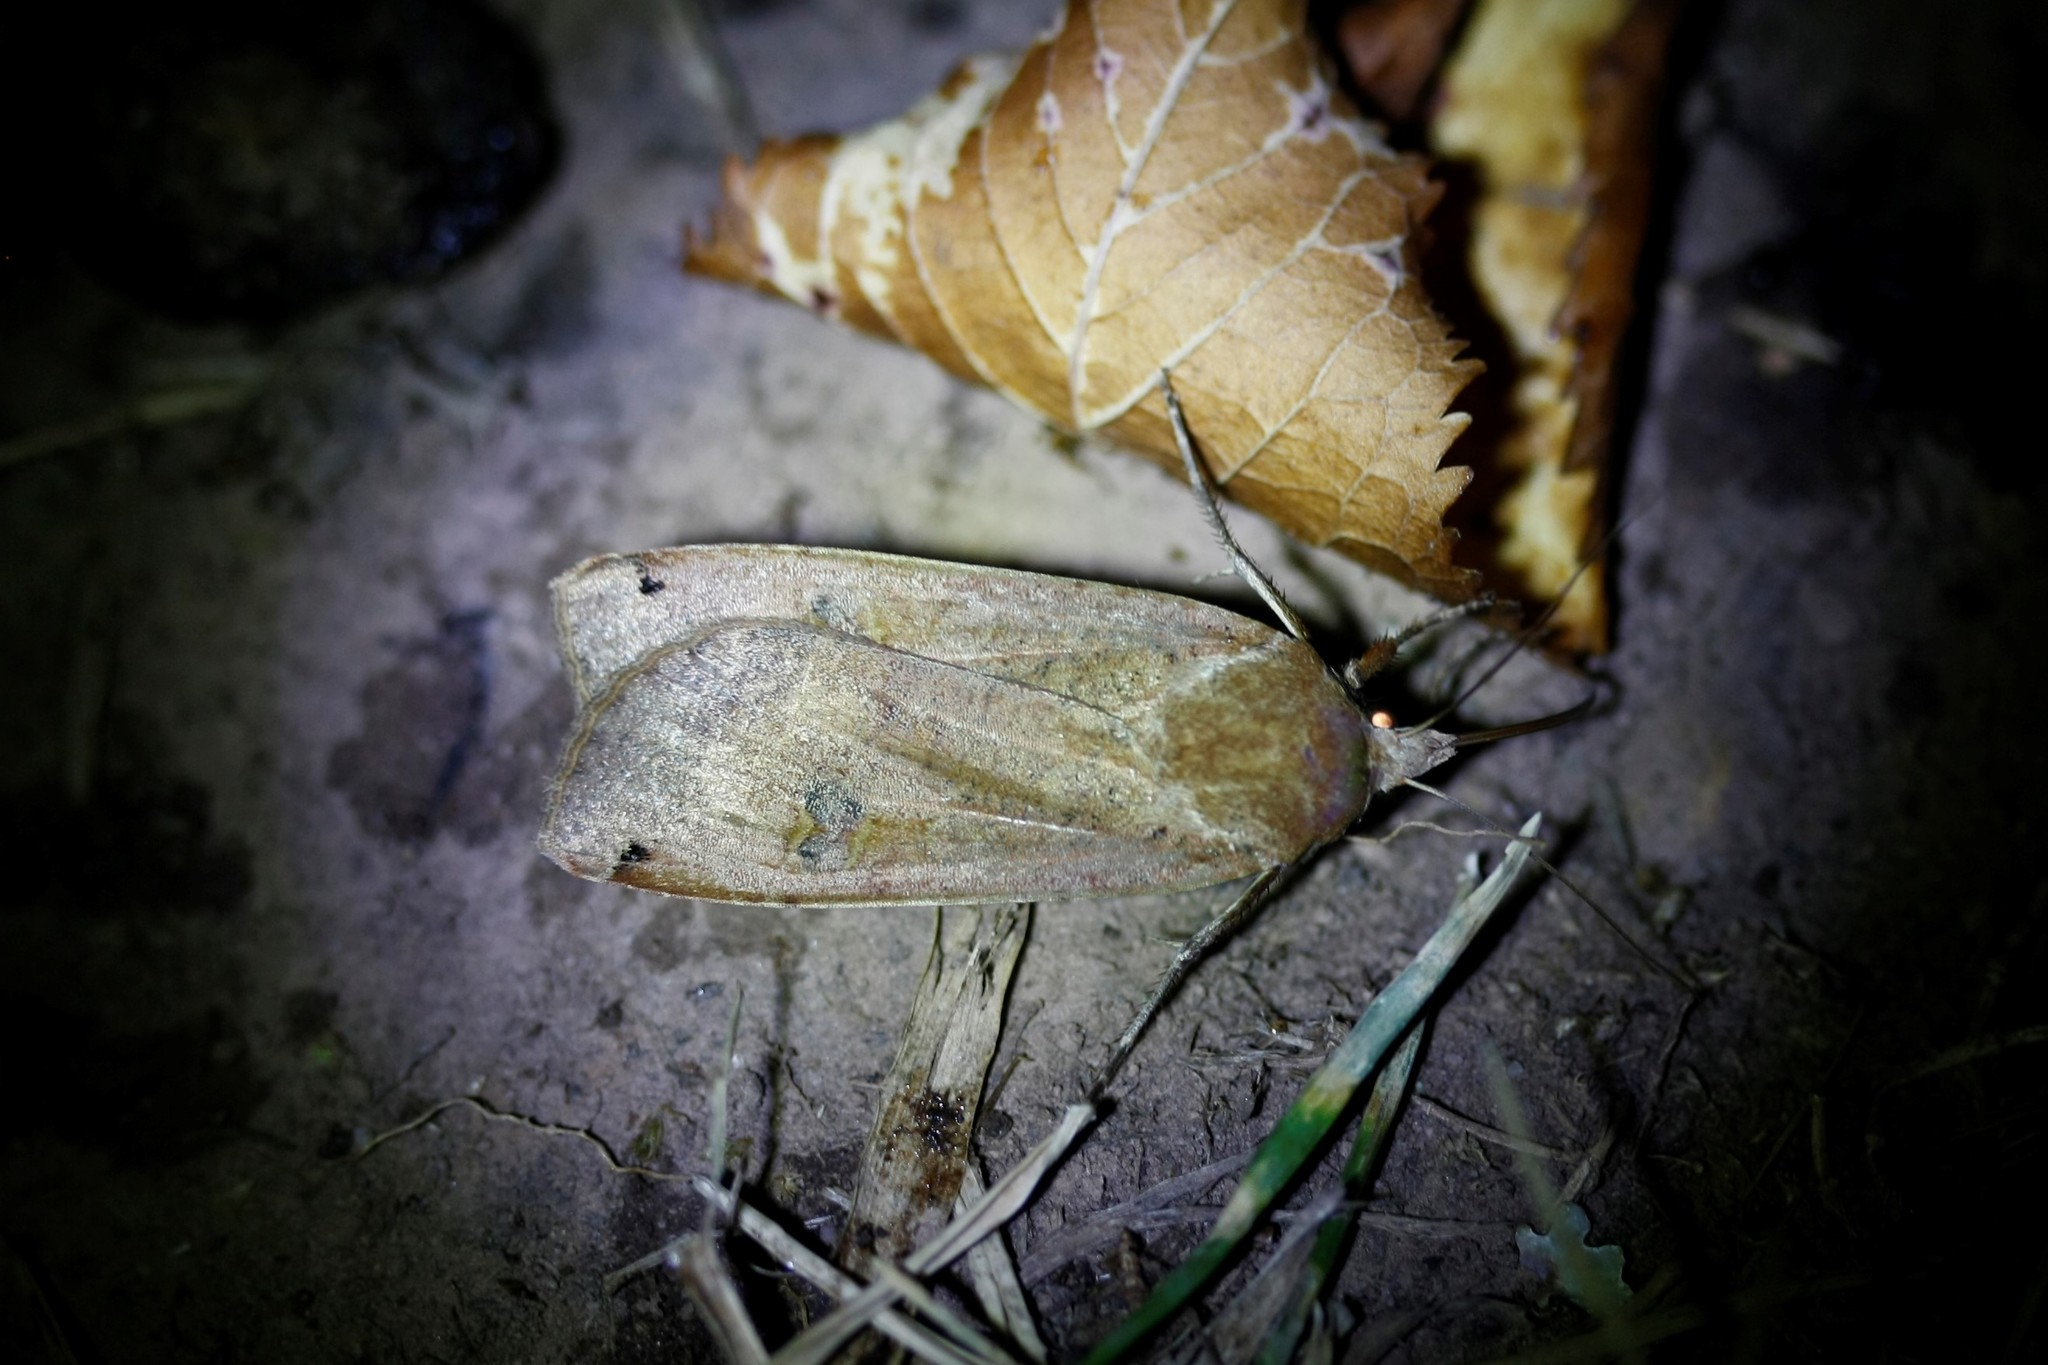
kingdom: Animalia
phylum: Arthropoda
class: Insecta
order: Lepidoptera
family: Noctuidae
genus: Noctua
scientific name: Noctua pronuba
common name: Large yellow underwing
